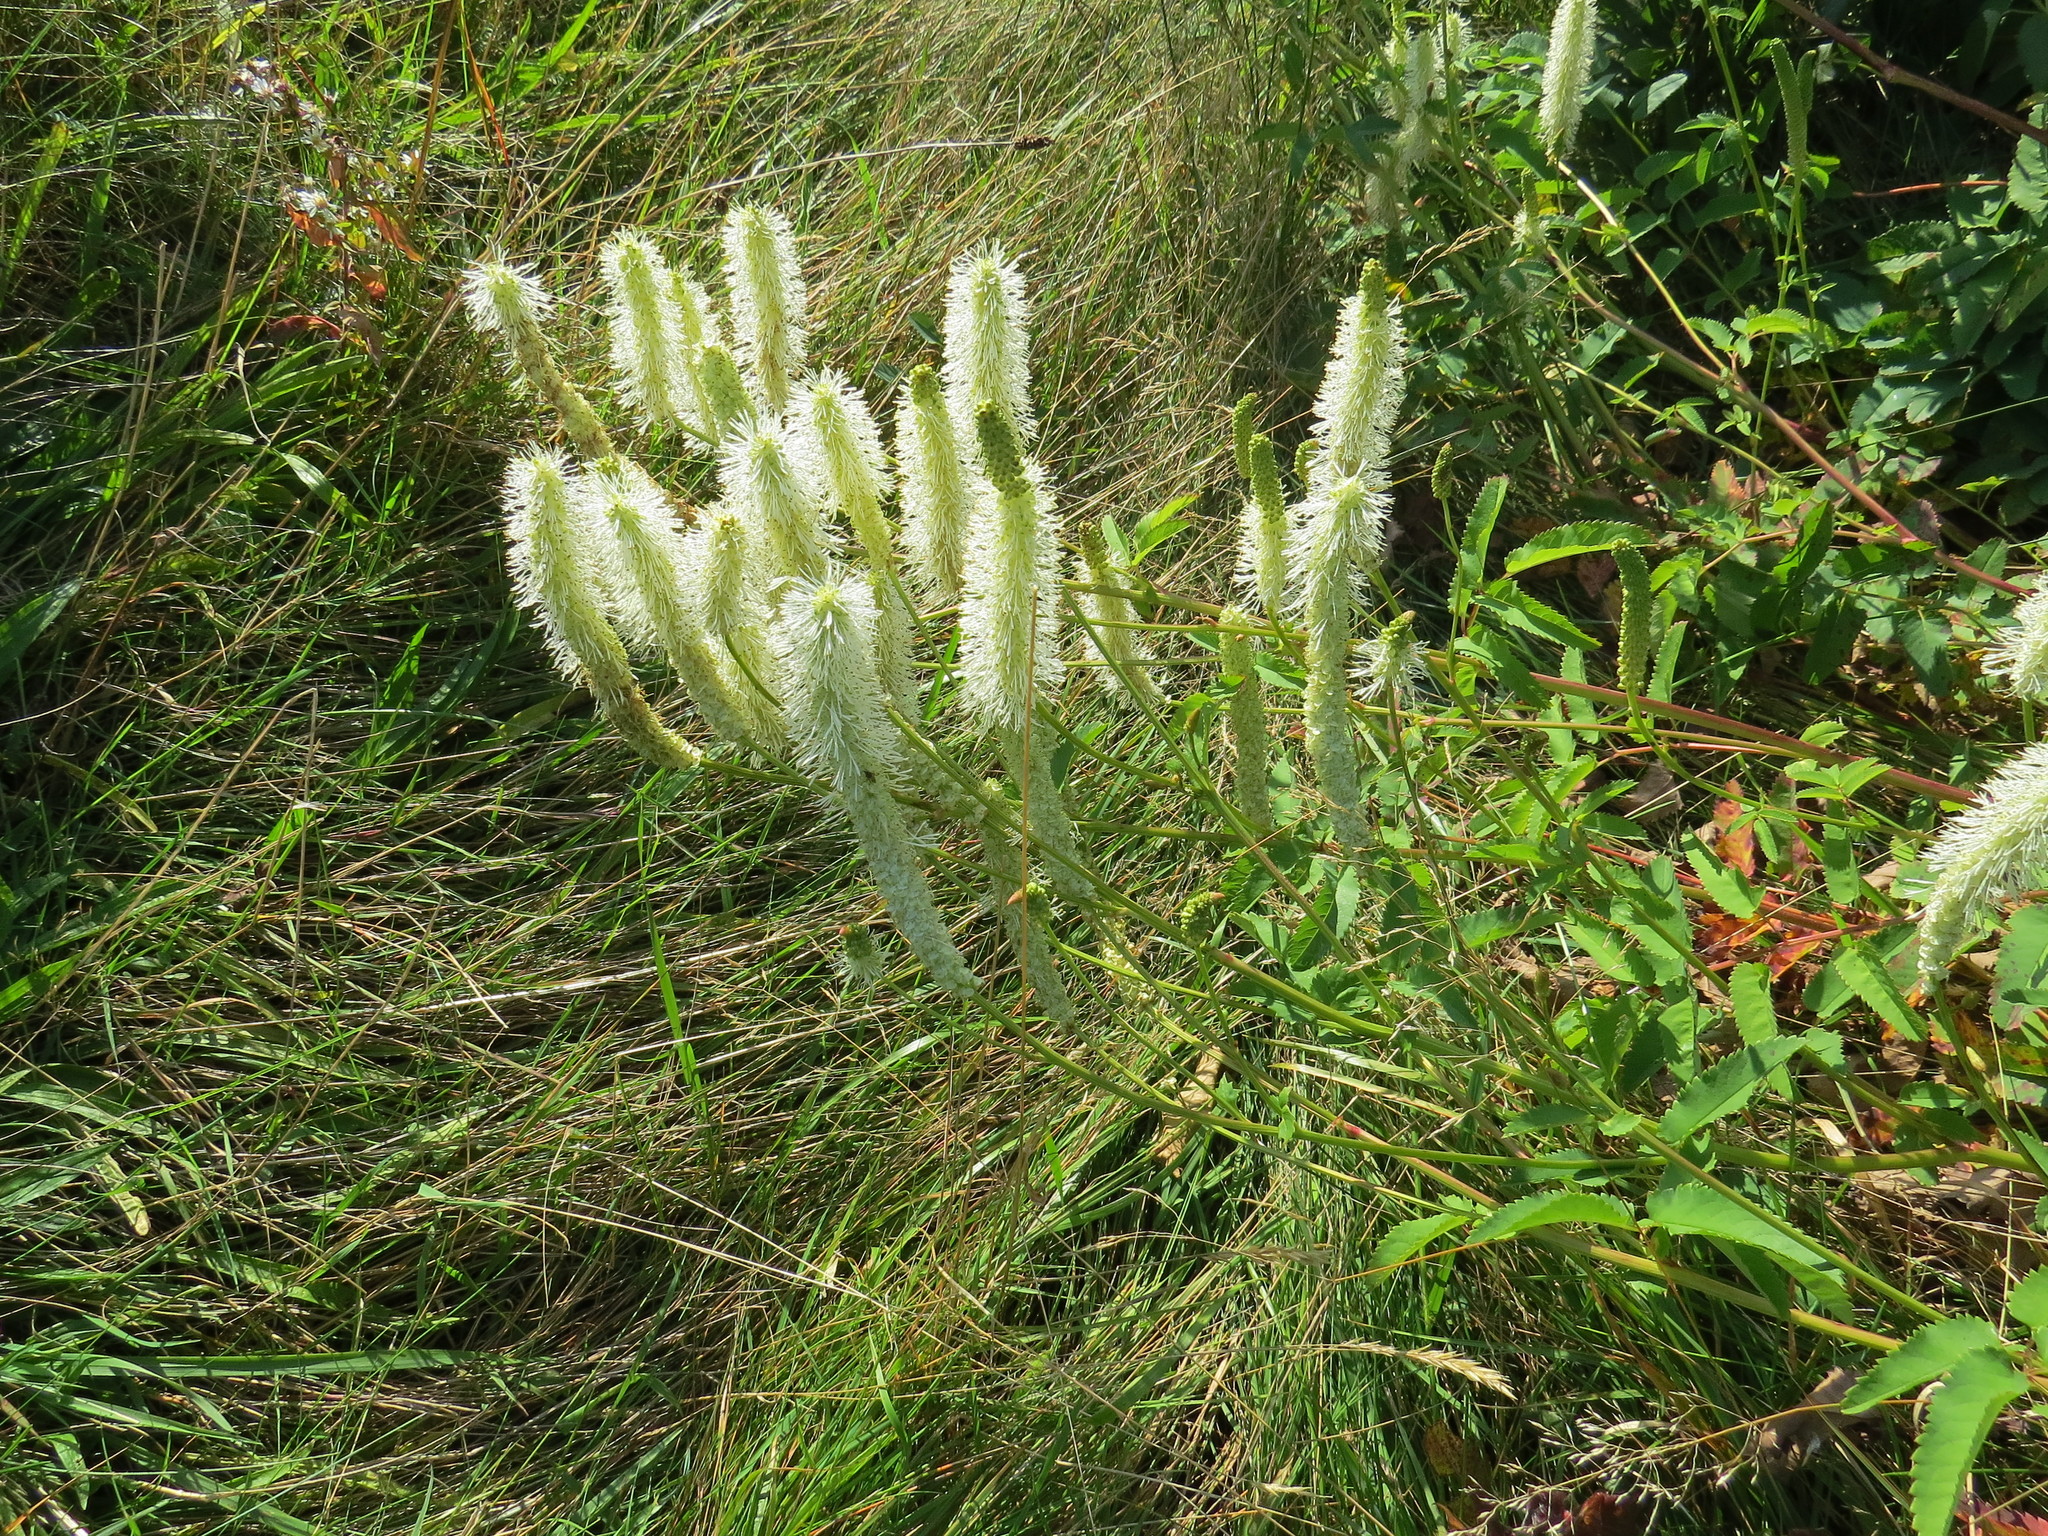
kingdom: Plantae
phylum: Tracheophyta
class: Magnoliopsida
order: Rosales
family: Rosaceae
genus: Sanguisorba
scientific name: Sanguisorba canadensis
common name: White burnet
